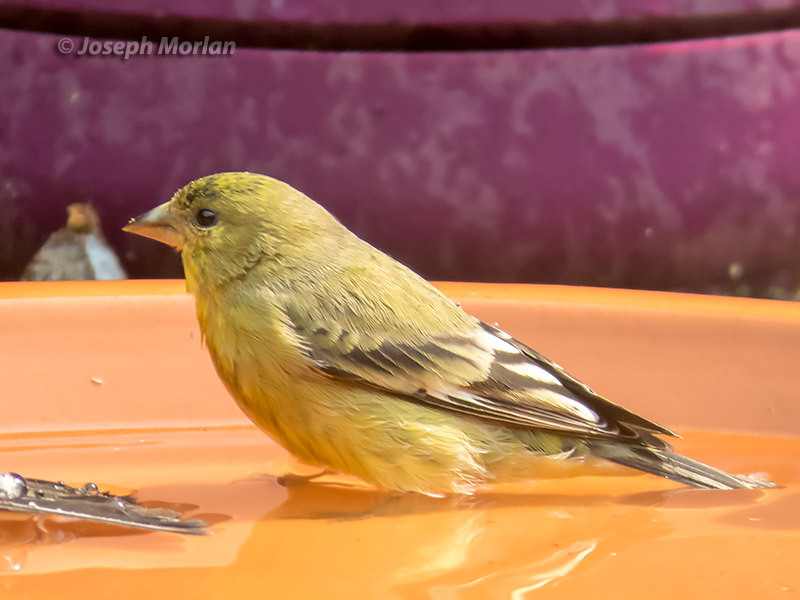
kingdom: Animalia
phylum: Chordata
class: Aves
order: Passeriformes
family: Fringillidae
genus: Spinus
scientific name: Spinus psaltria
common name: Lesser goldfinch
